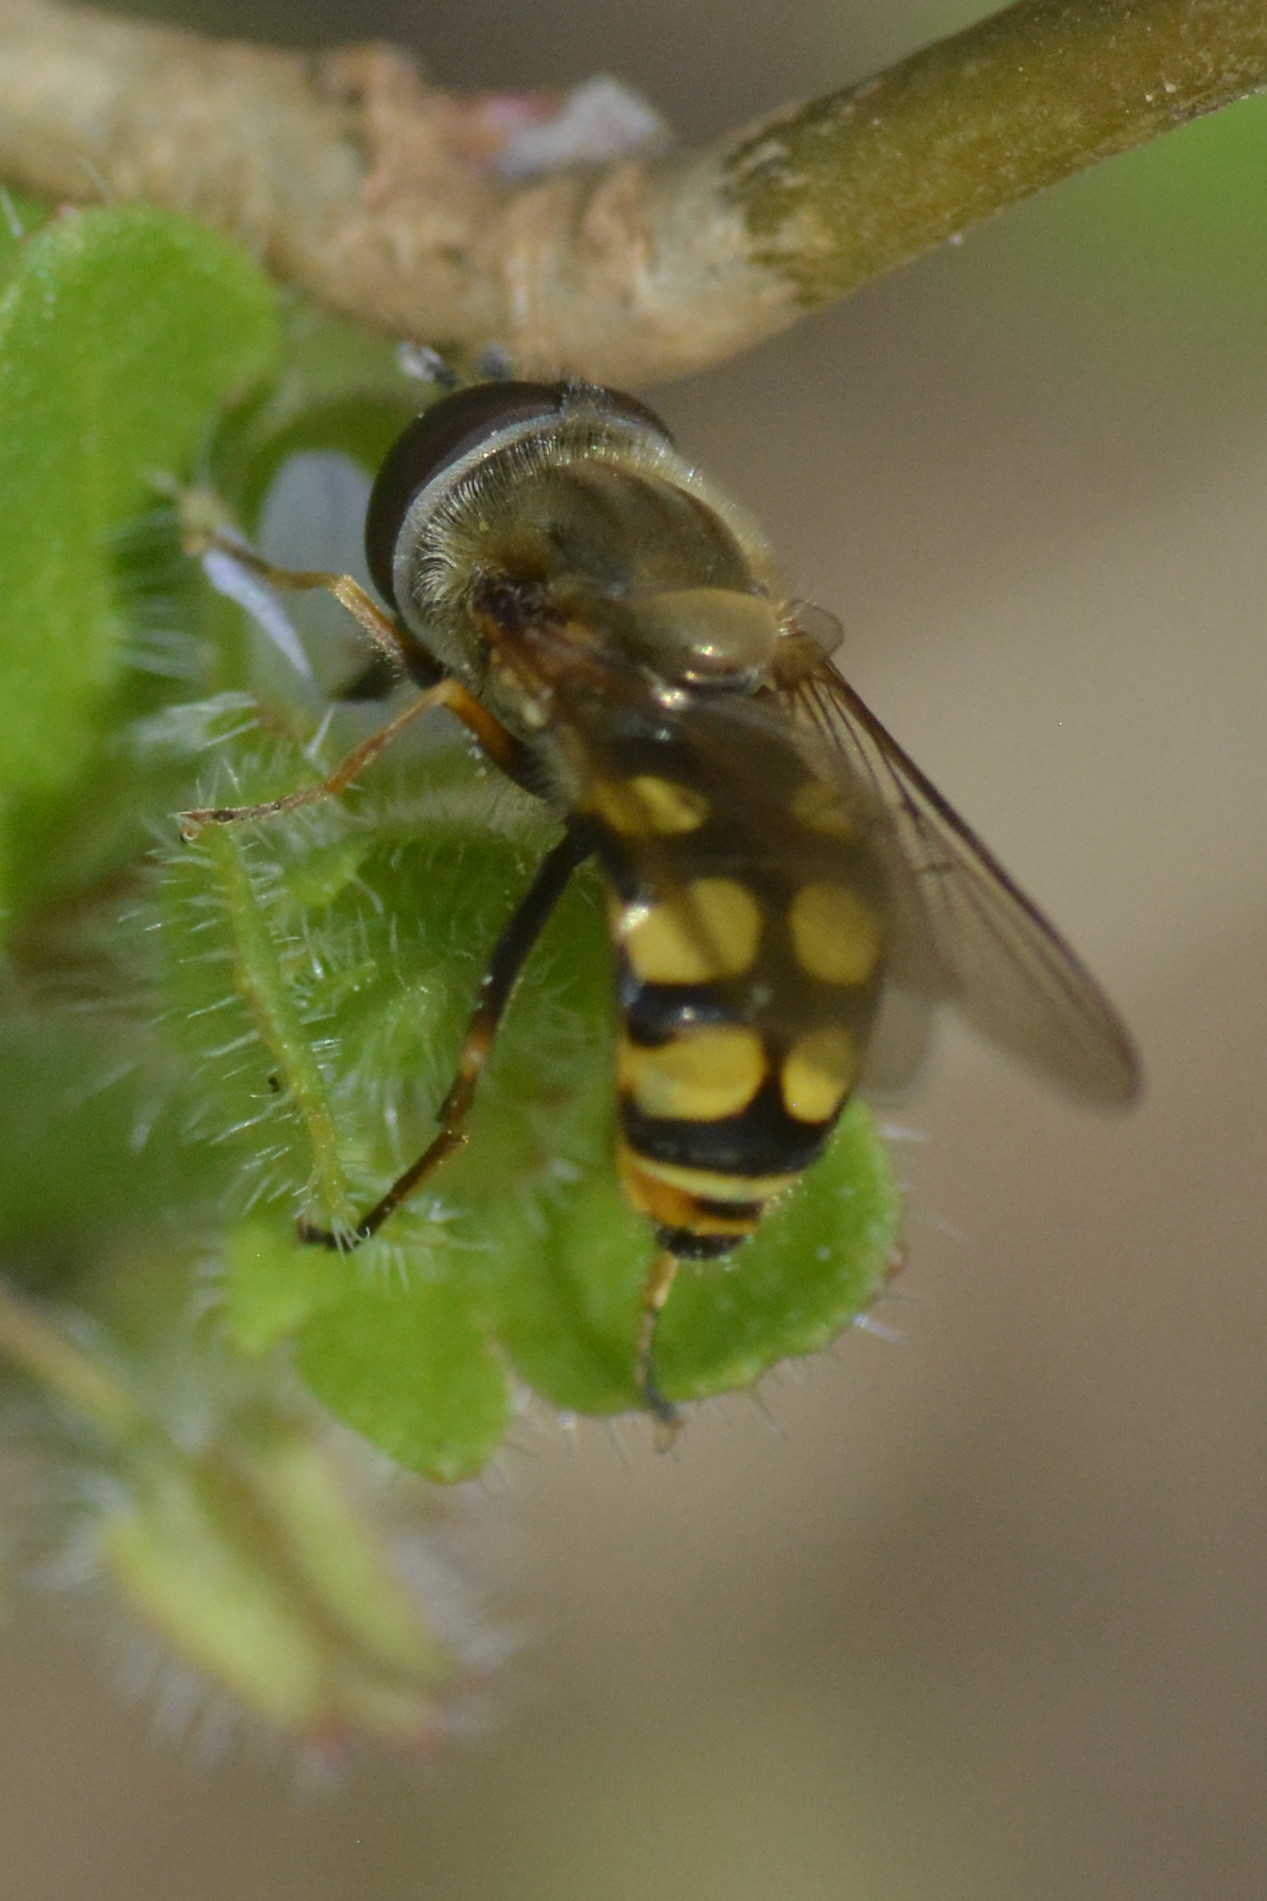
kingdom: Animalia
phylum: Arthropoda
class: Insecta
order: Diptera
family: Syrphidae
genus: Eupeodes
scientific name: Eupeodes corollae
